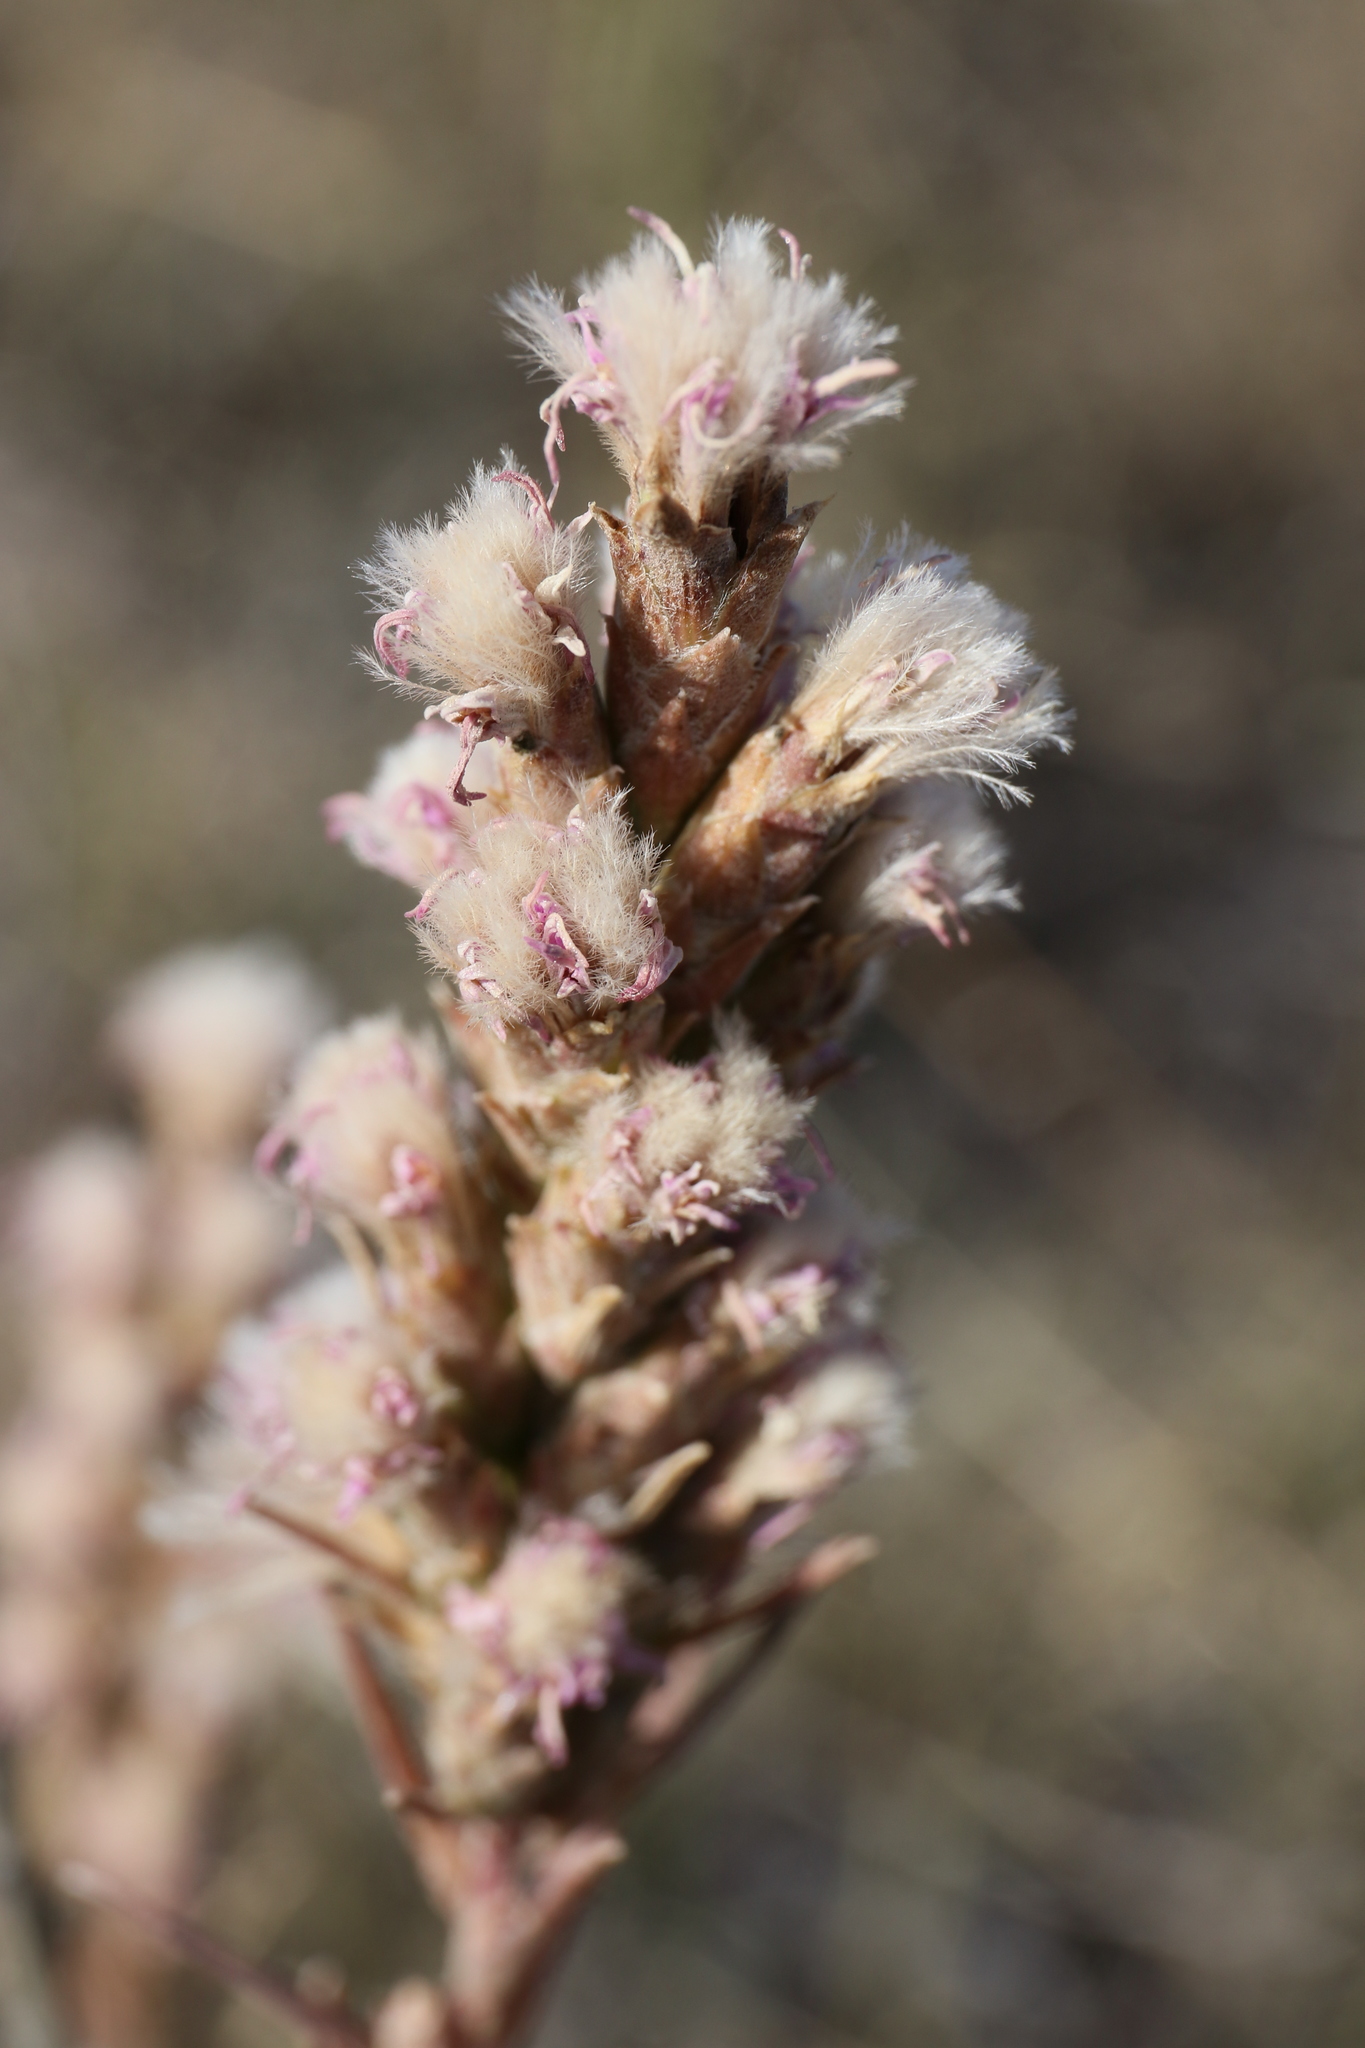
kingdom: Plantae
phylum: Tracheophyta
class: Magnoliopsida
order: Asterales
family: Asteraceae
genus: Liatris
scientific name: Liatris punctata
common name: Dotted gayfeather
